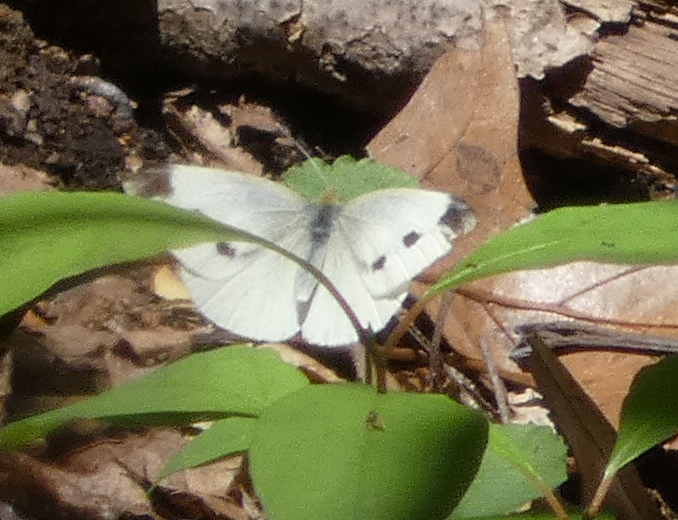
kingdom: Animalia
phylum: Arthropoda
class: Insecta
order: Lepidoptera
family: Pieridae
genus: Pieris
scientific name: Pieris rapae
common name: Small white
